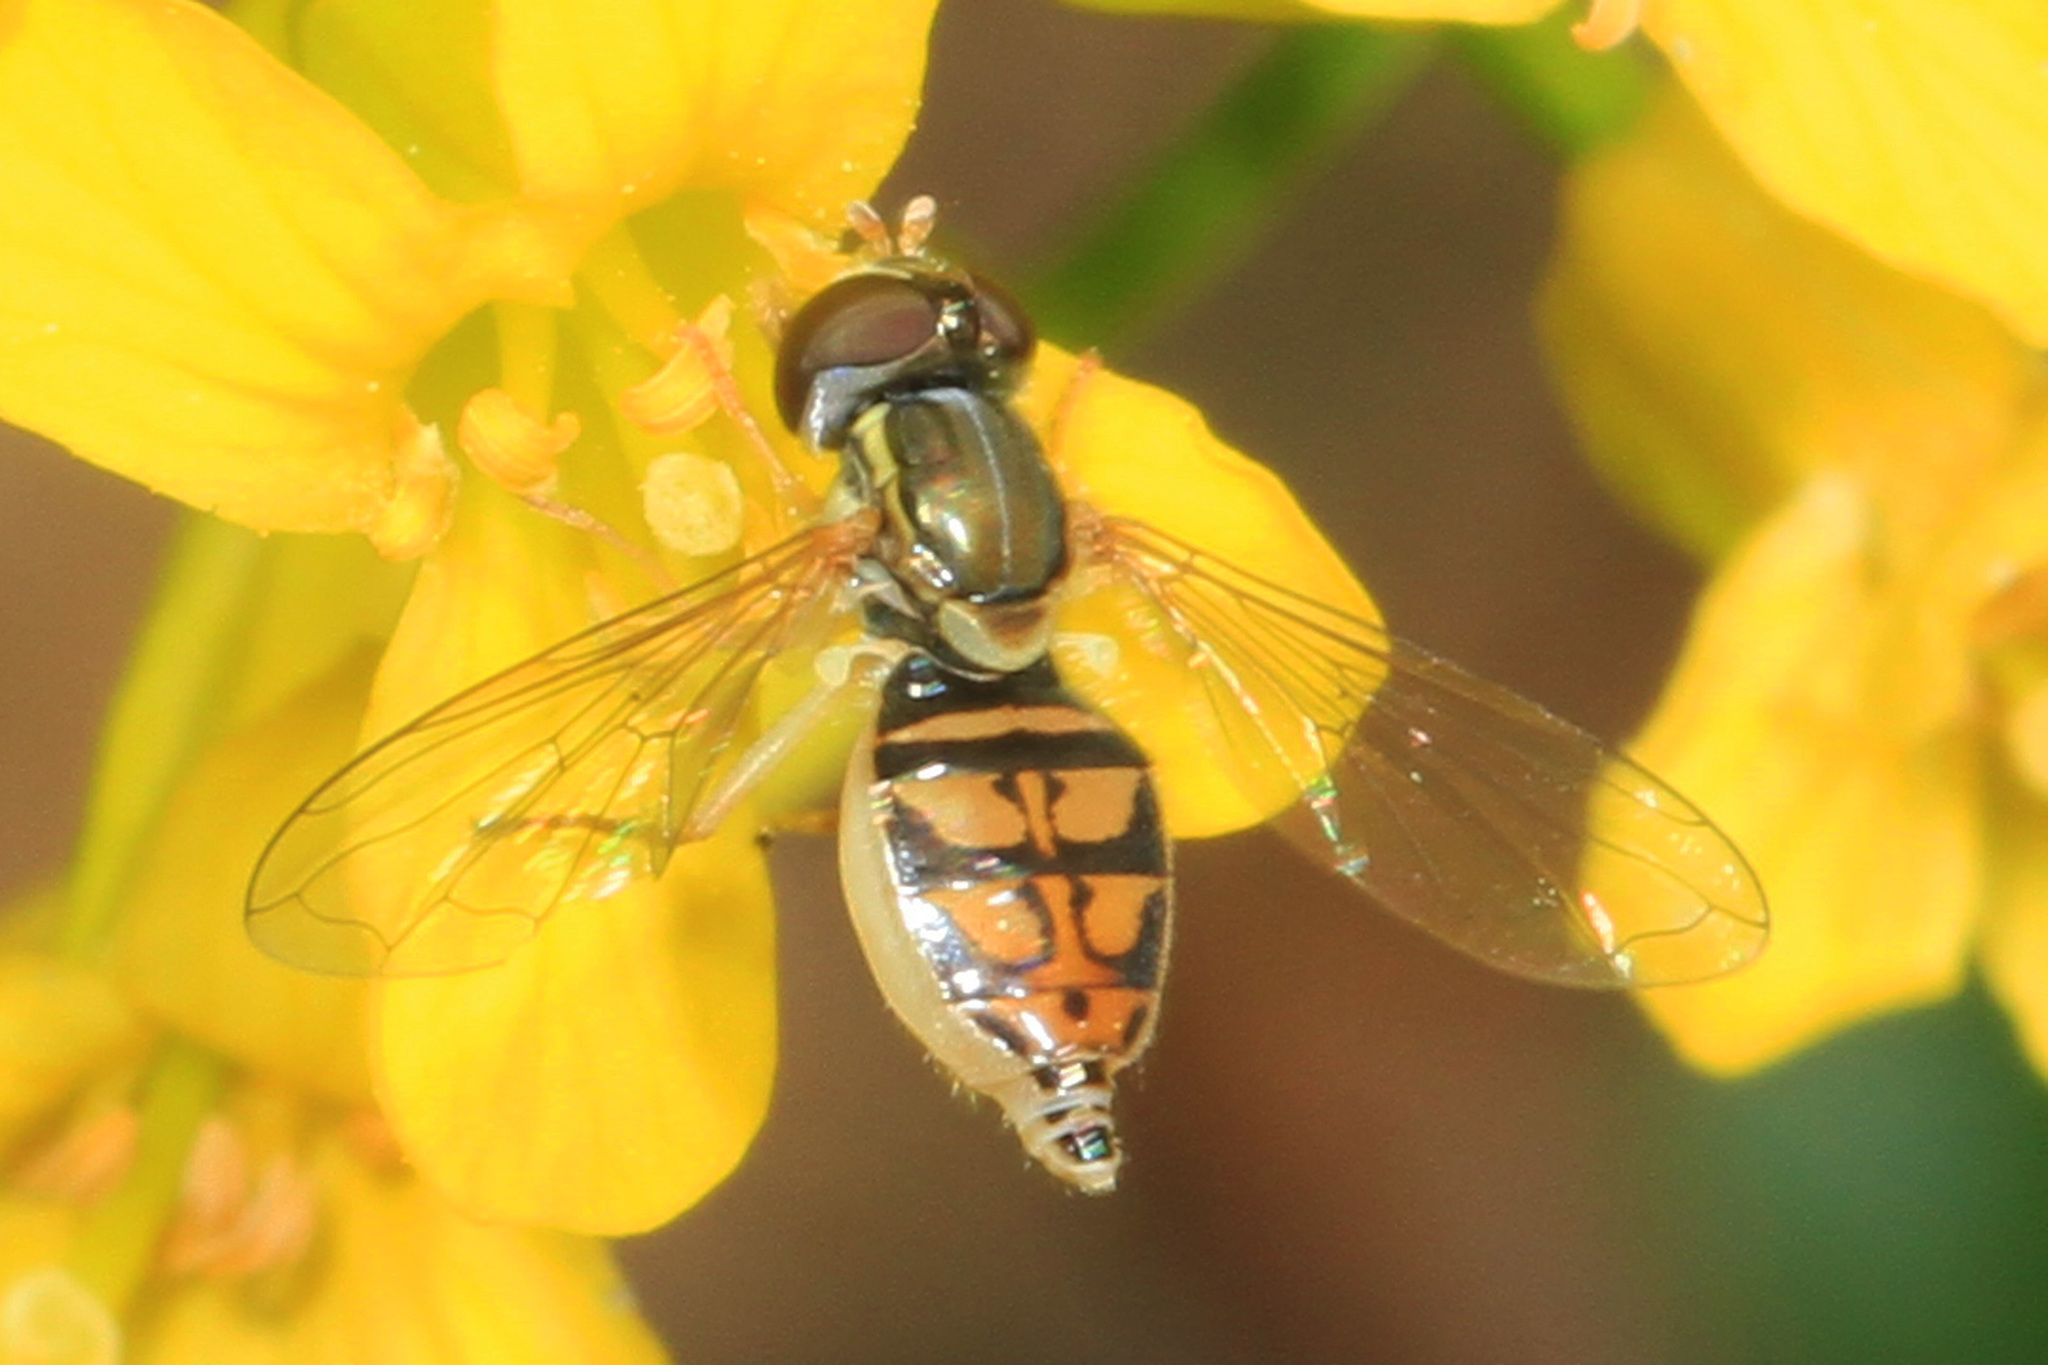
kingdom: Animalia
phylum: Arthropoda
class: Insecta
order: Diptera
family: Syrphidae
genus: Toxomerus
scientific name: Toxomerus marginatus
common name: Syrphid fly
